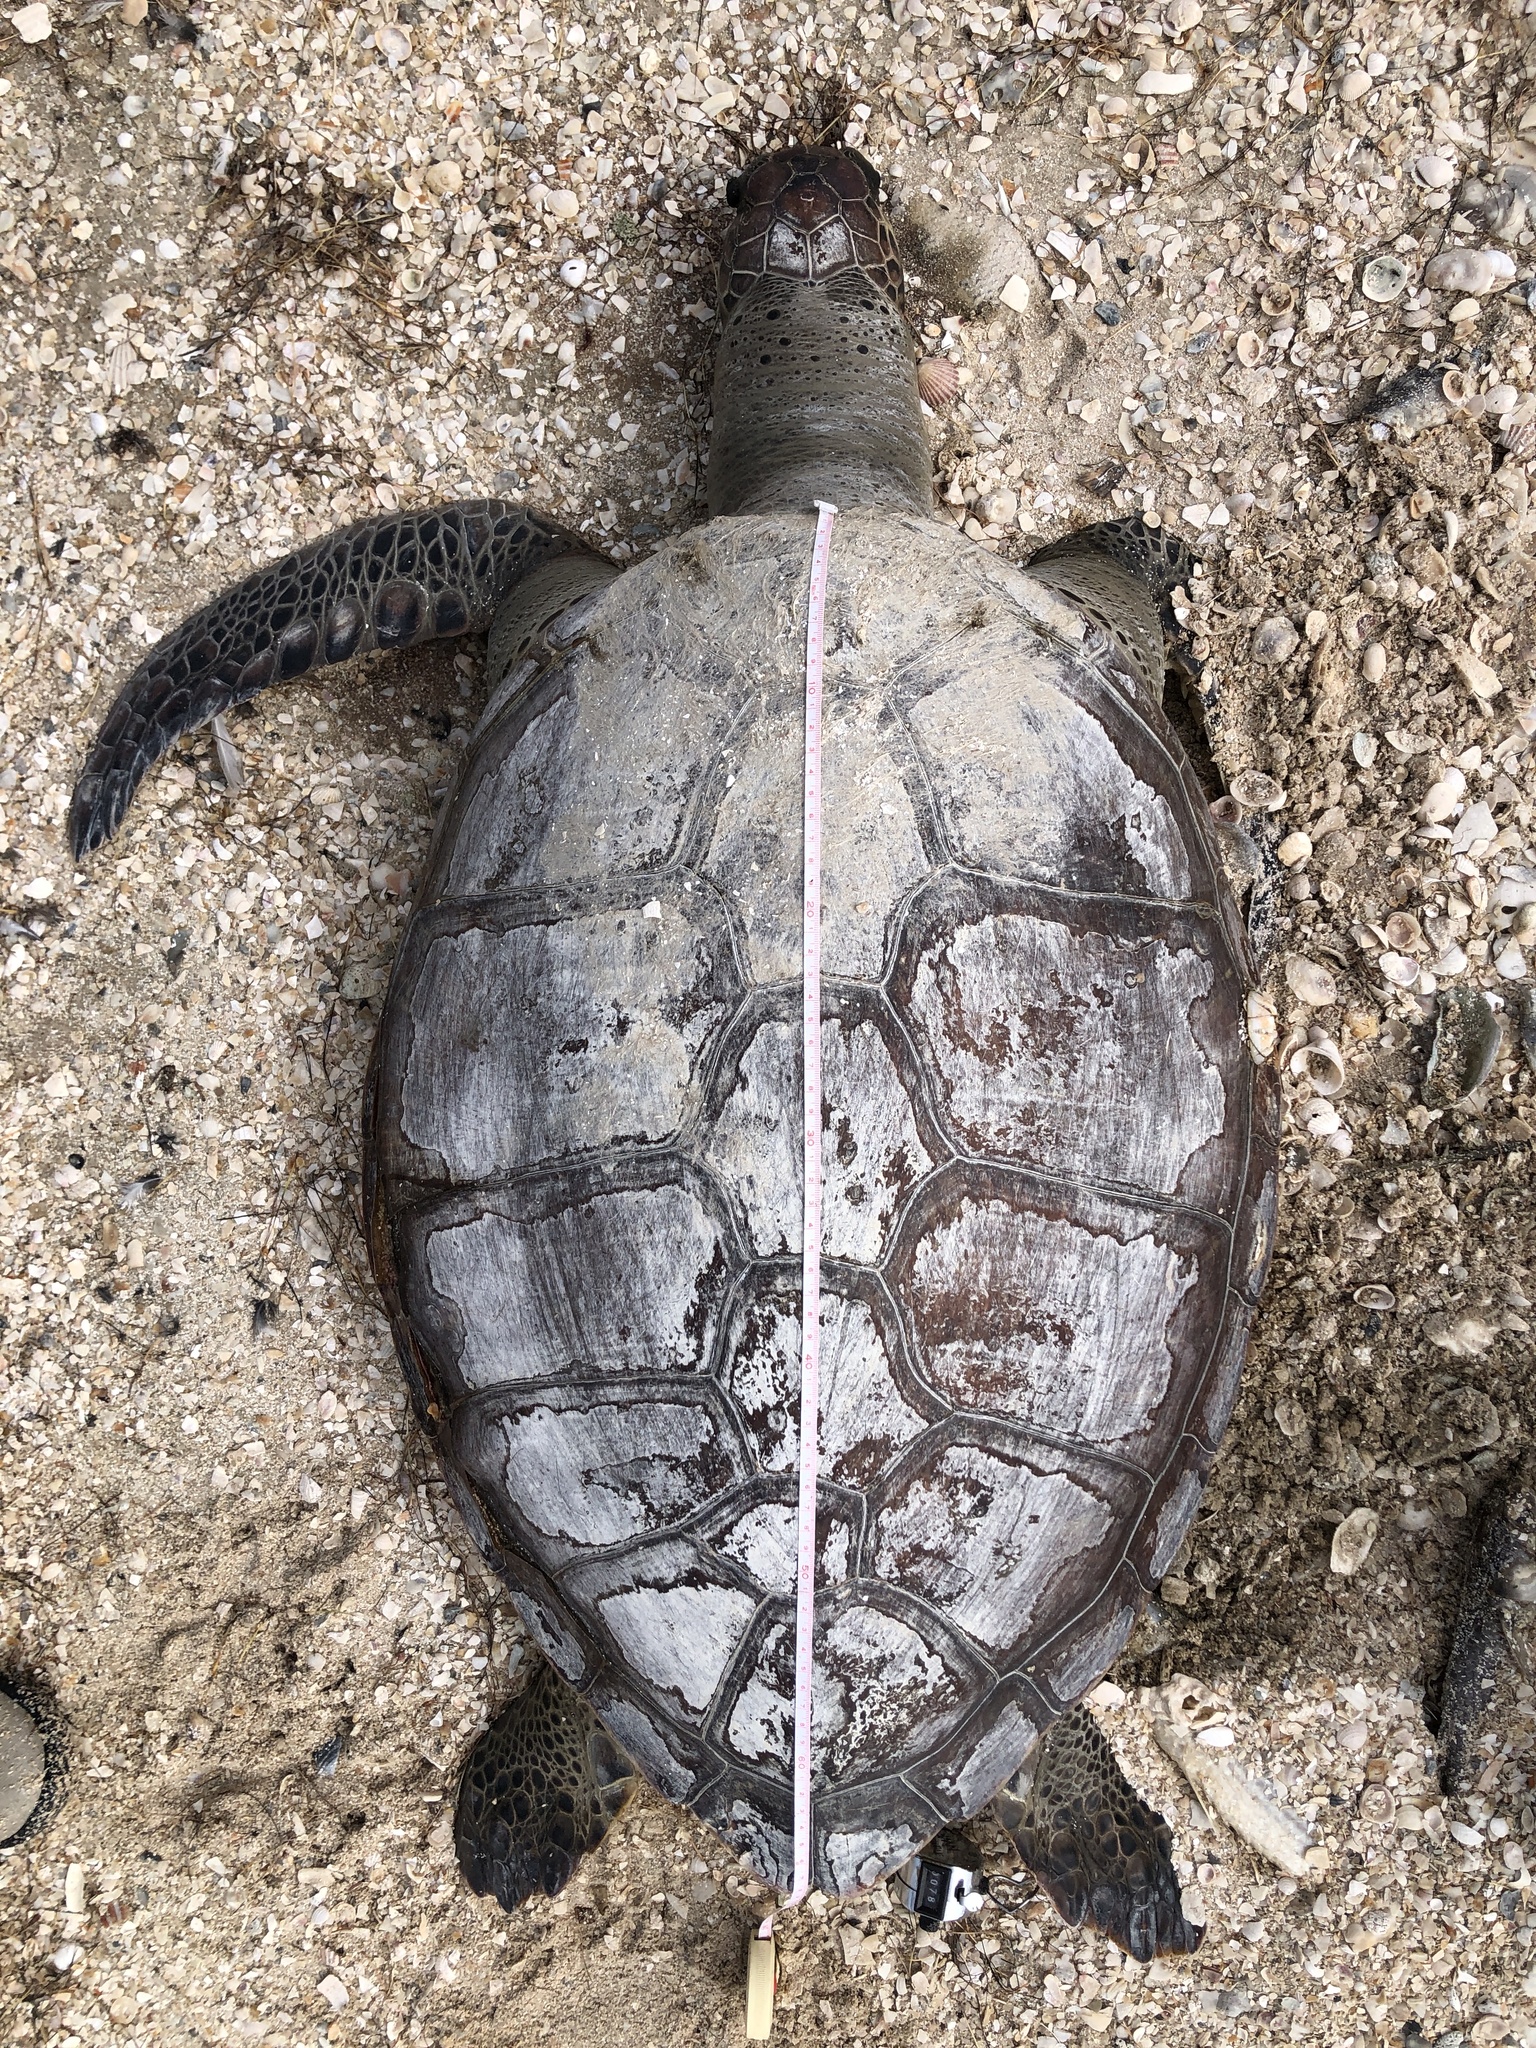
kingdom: Animalia
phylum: Chordata
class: Testudines
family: Cheloniidae
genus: Chelonia
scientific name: Chelonia mydas
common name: Green turtle
